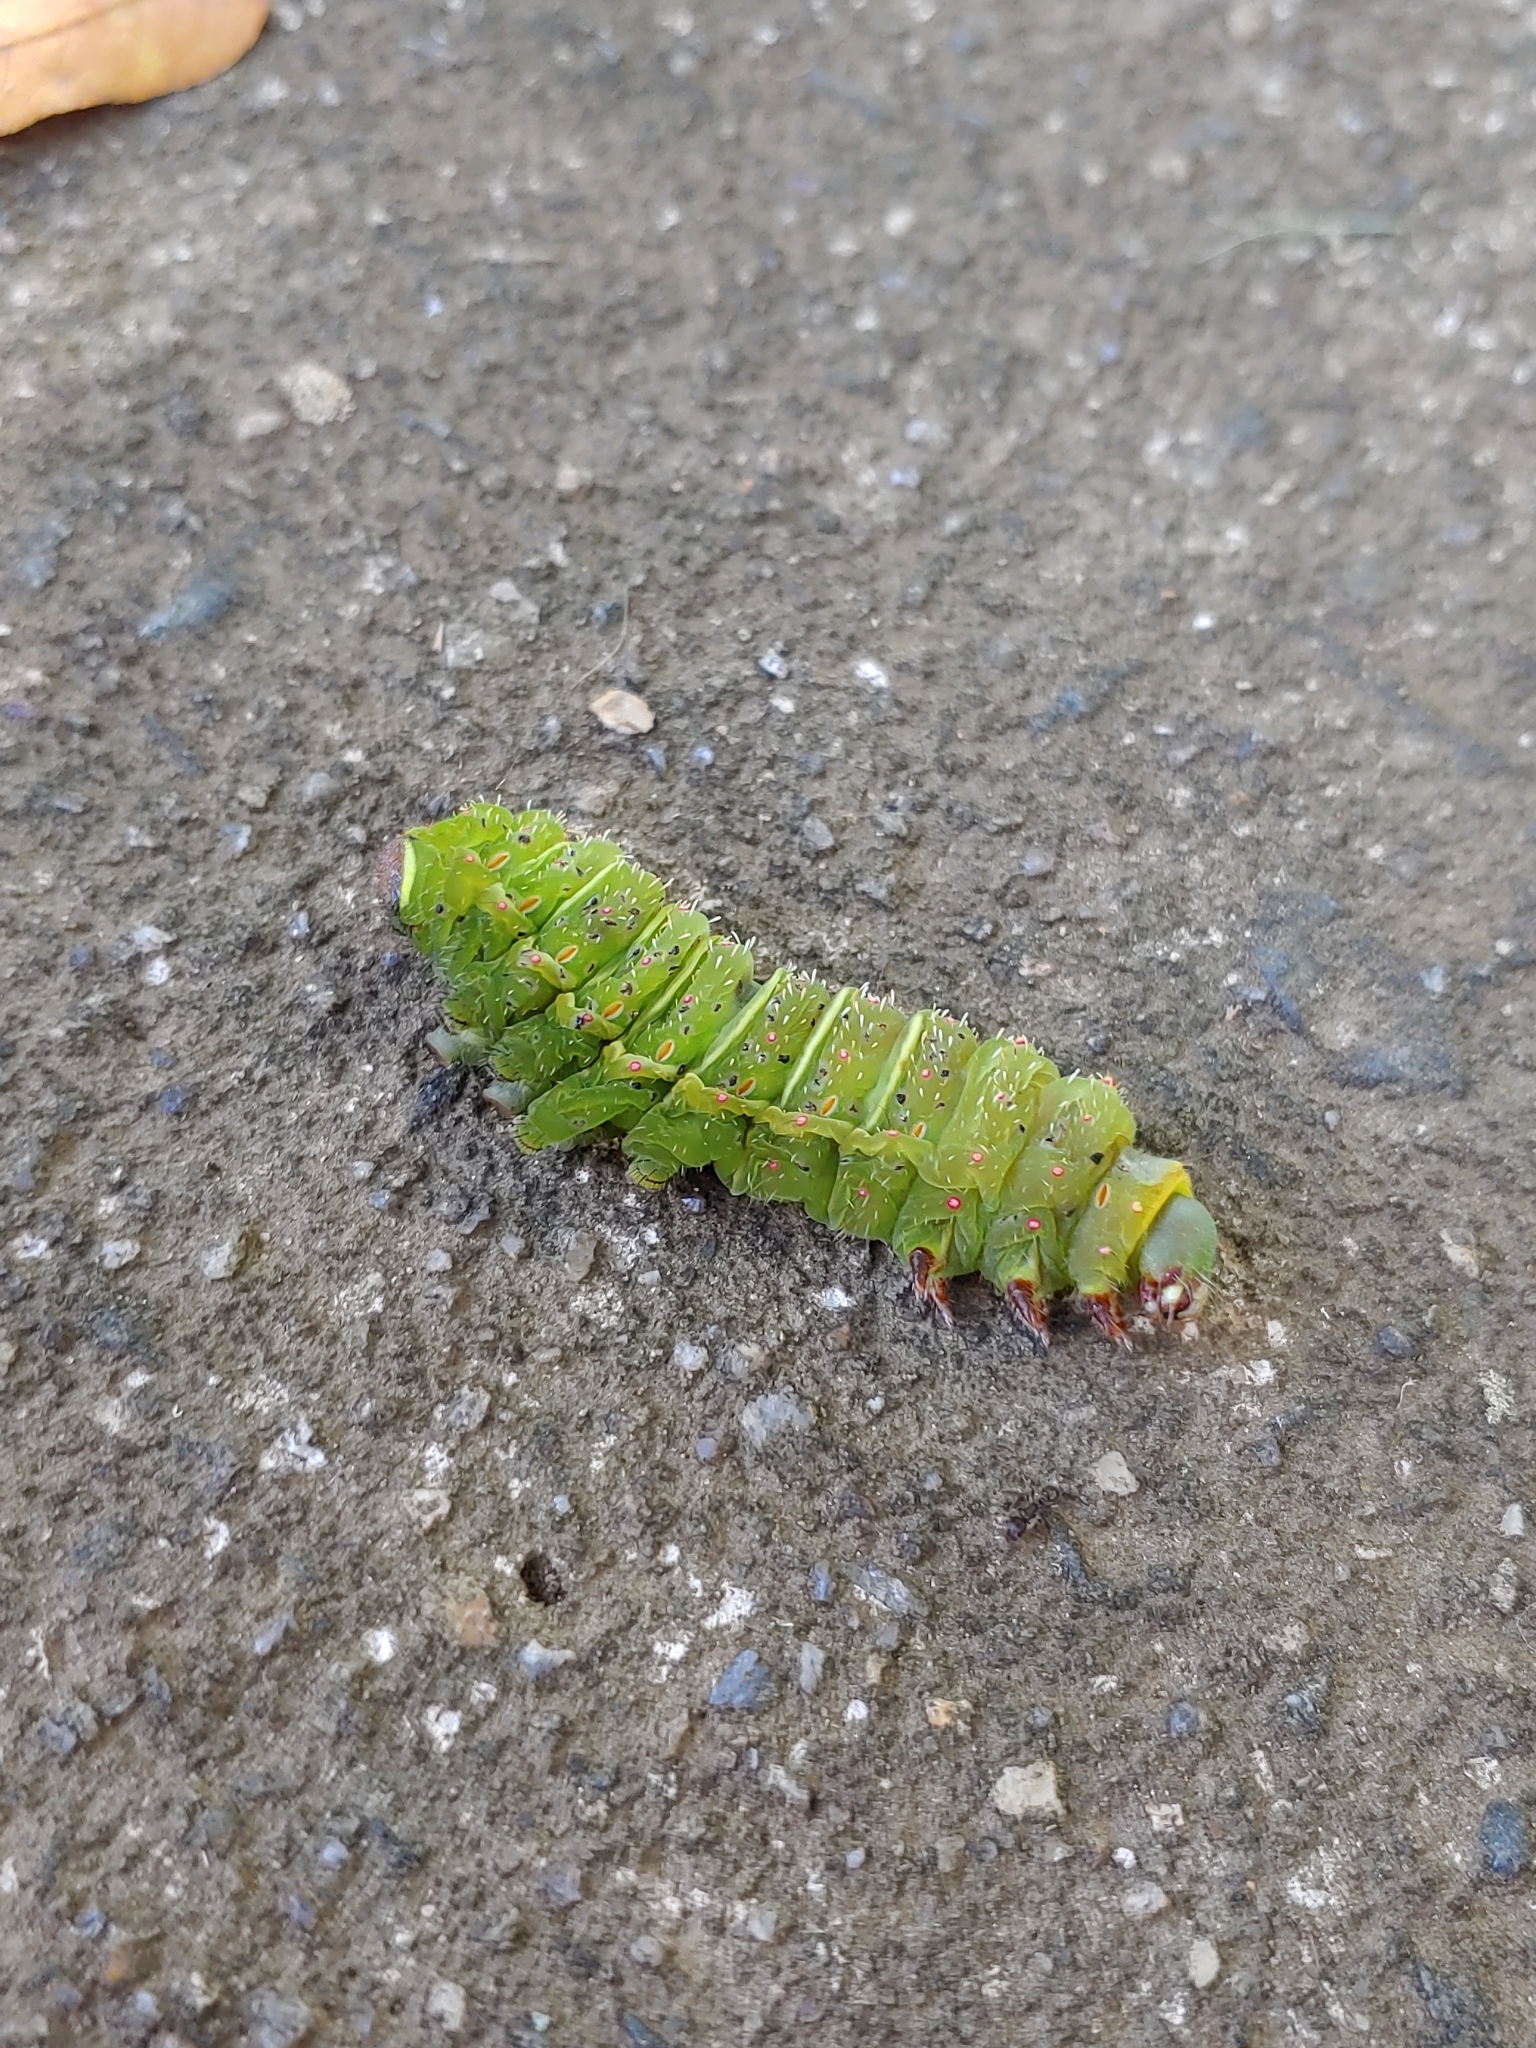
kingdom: Animalia
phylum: Arthropoda
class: Insecta
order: Lepidoptera
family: Saturniidae
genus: Actias
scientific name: Actias luna
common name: Luna moth
